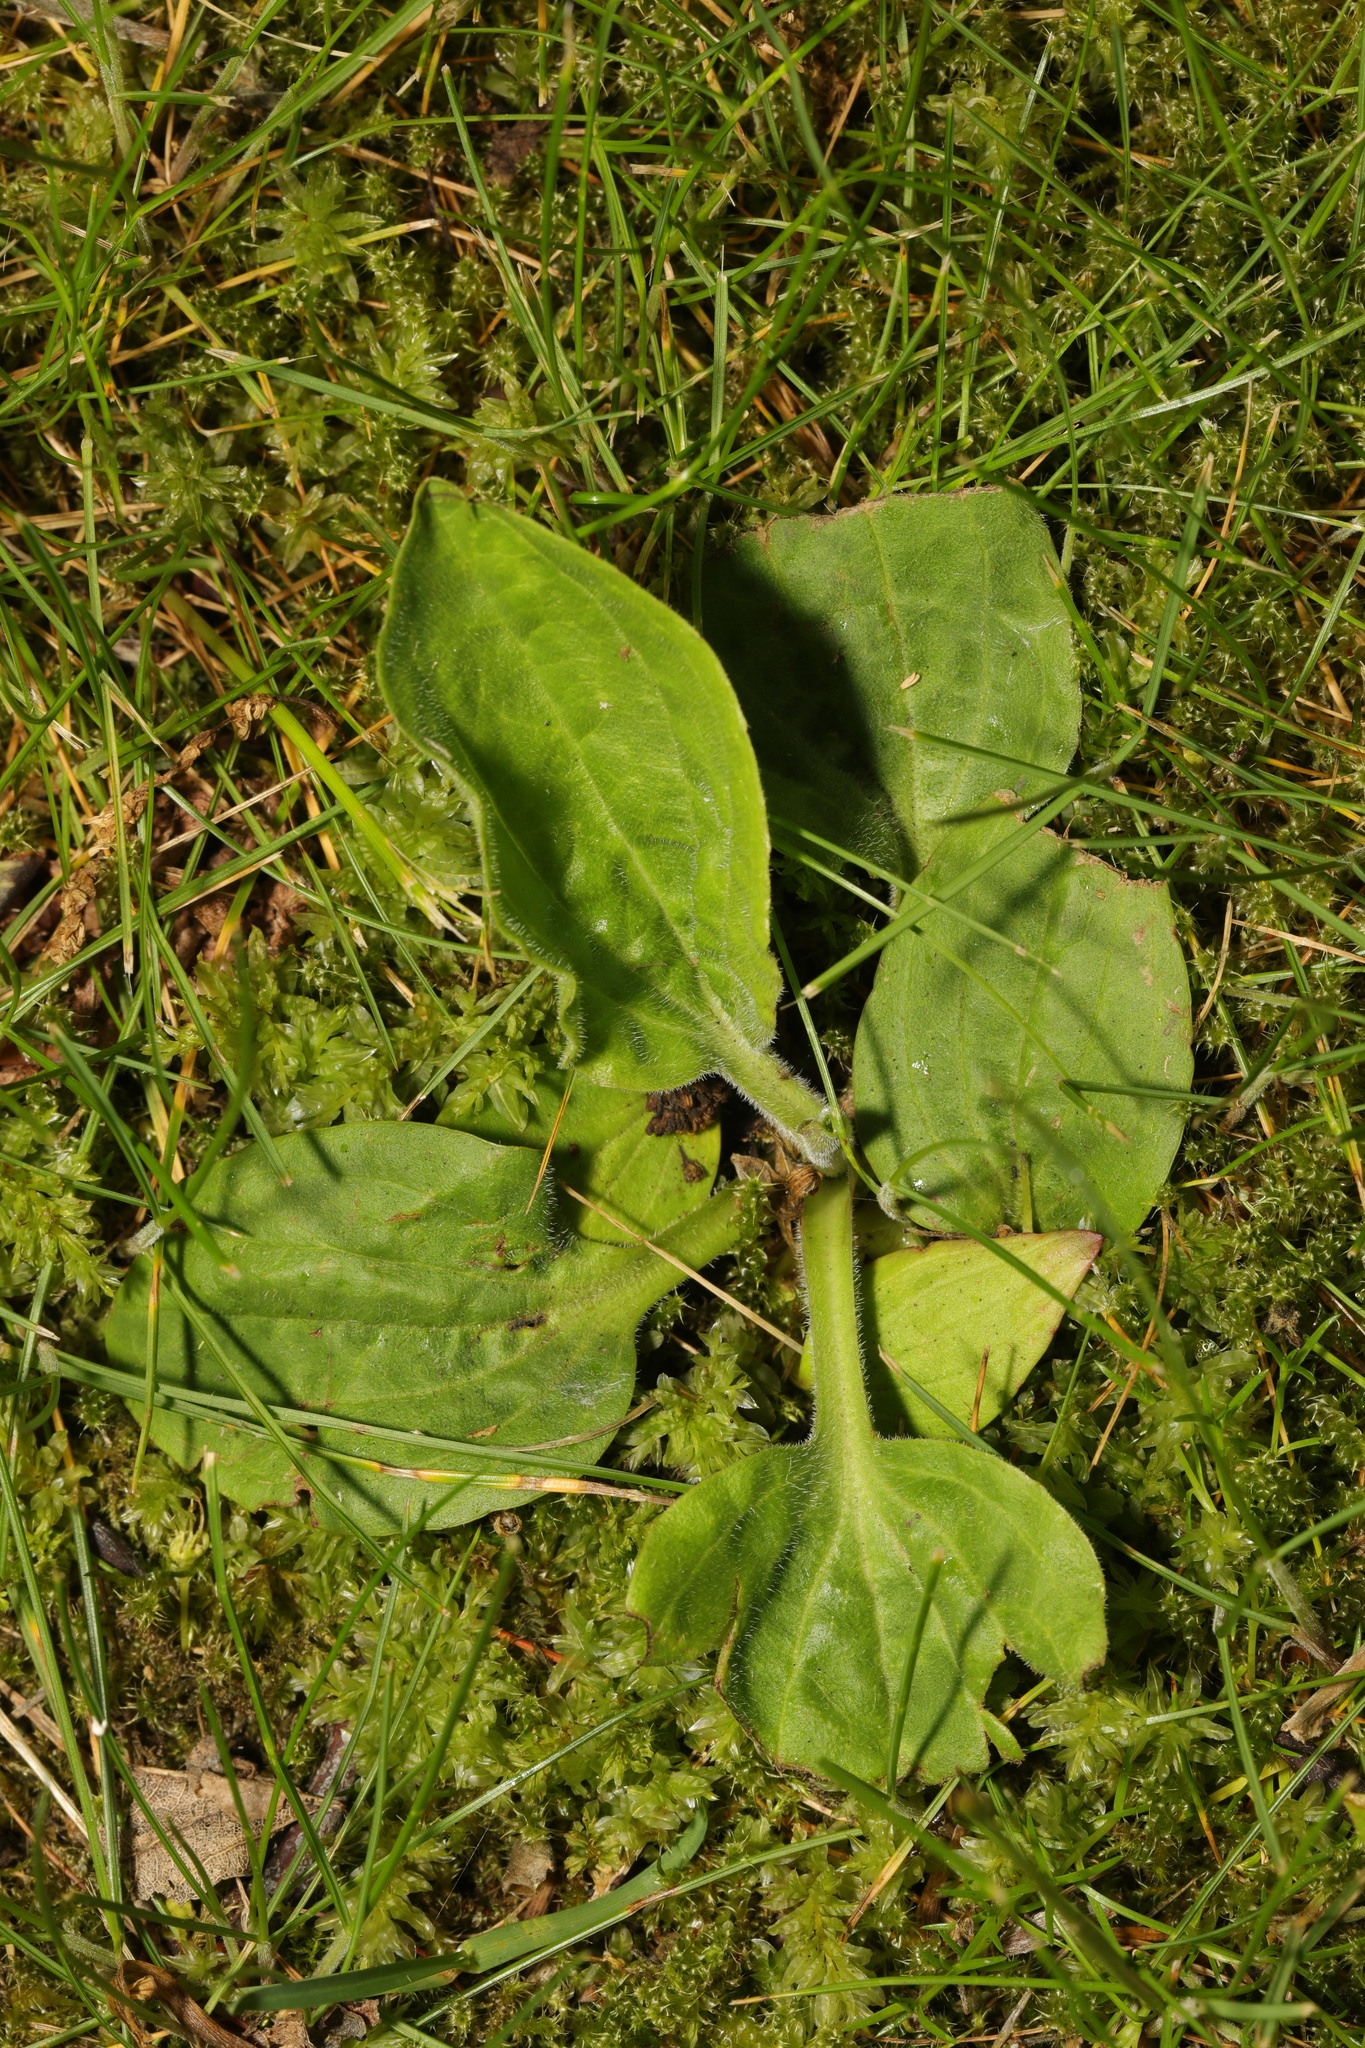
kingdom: Plantae
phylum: Tracheophyta
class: Magnoliopsida
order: Lamiales
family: Plantaginaceae
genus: Plantago
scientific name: Plantago major
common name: Common plantain
